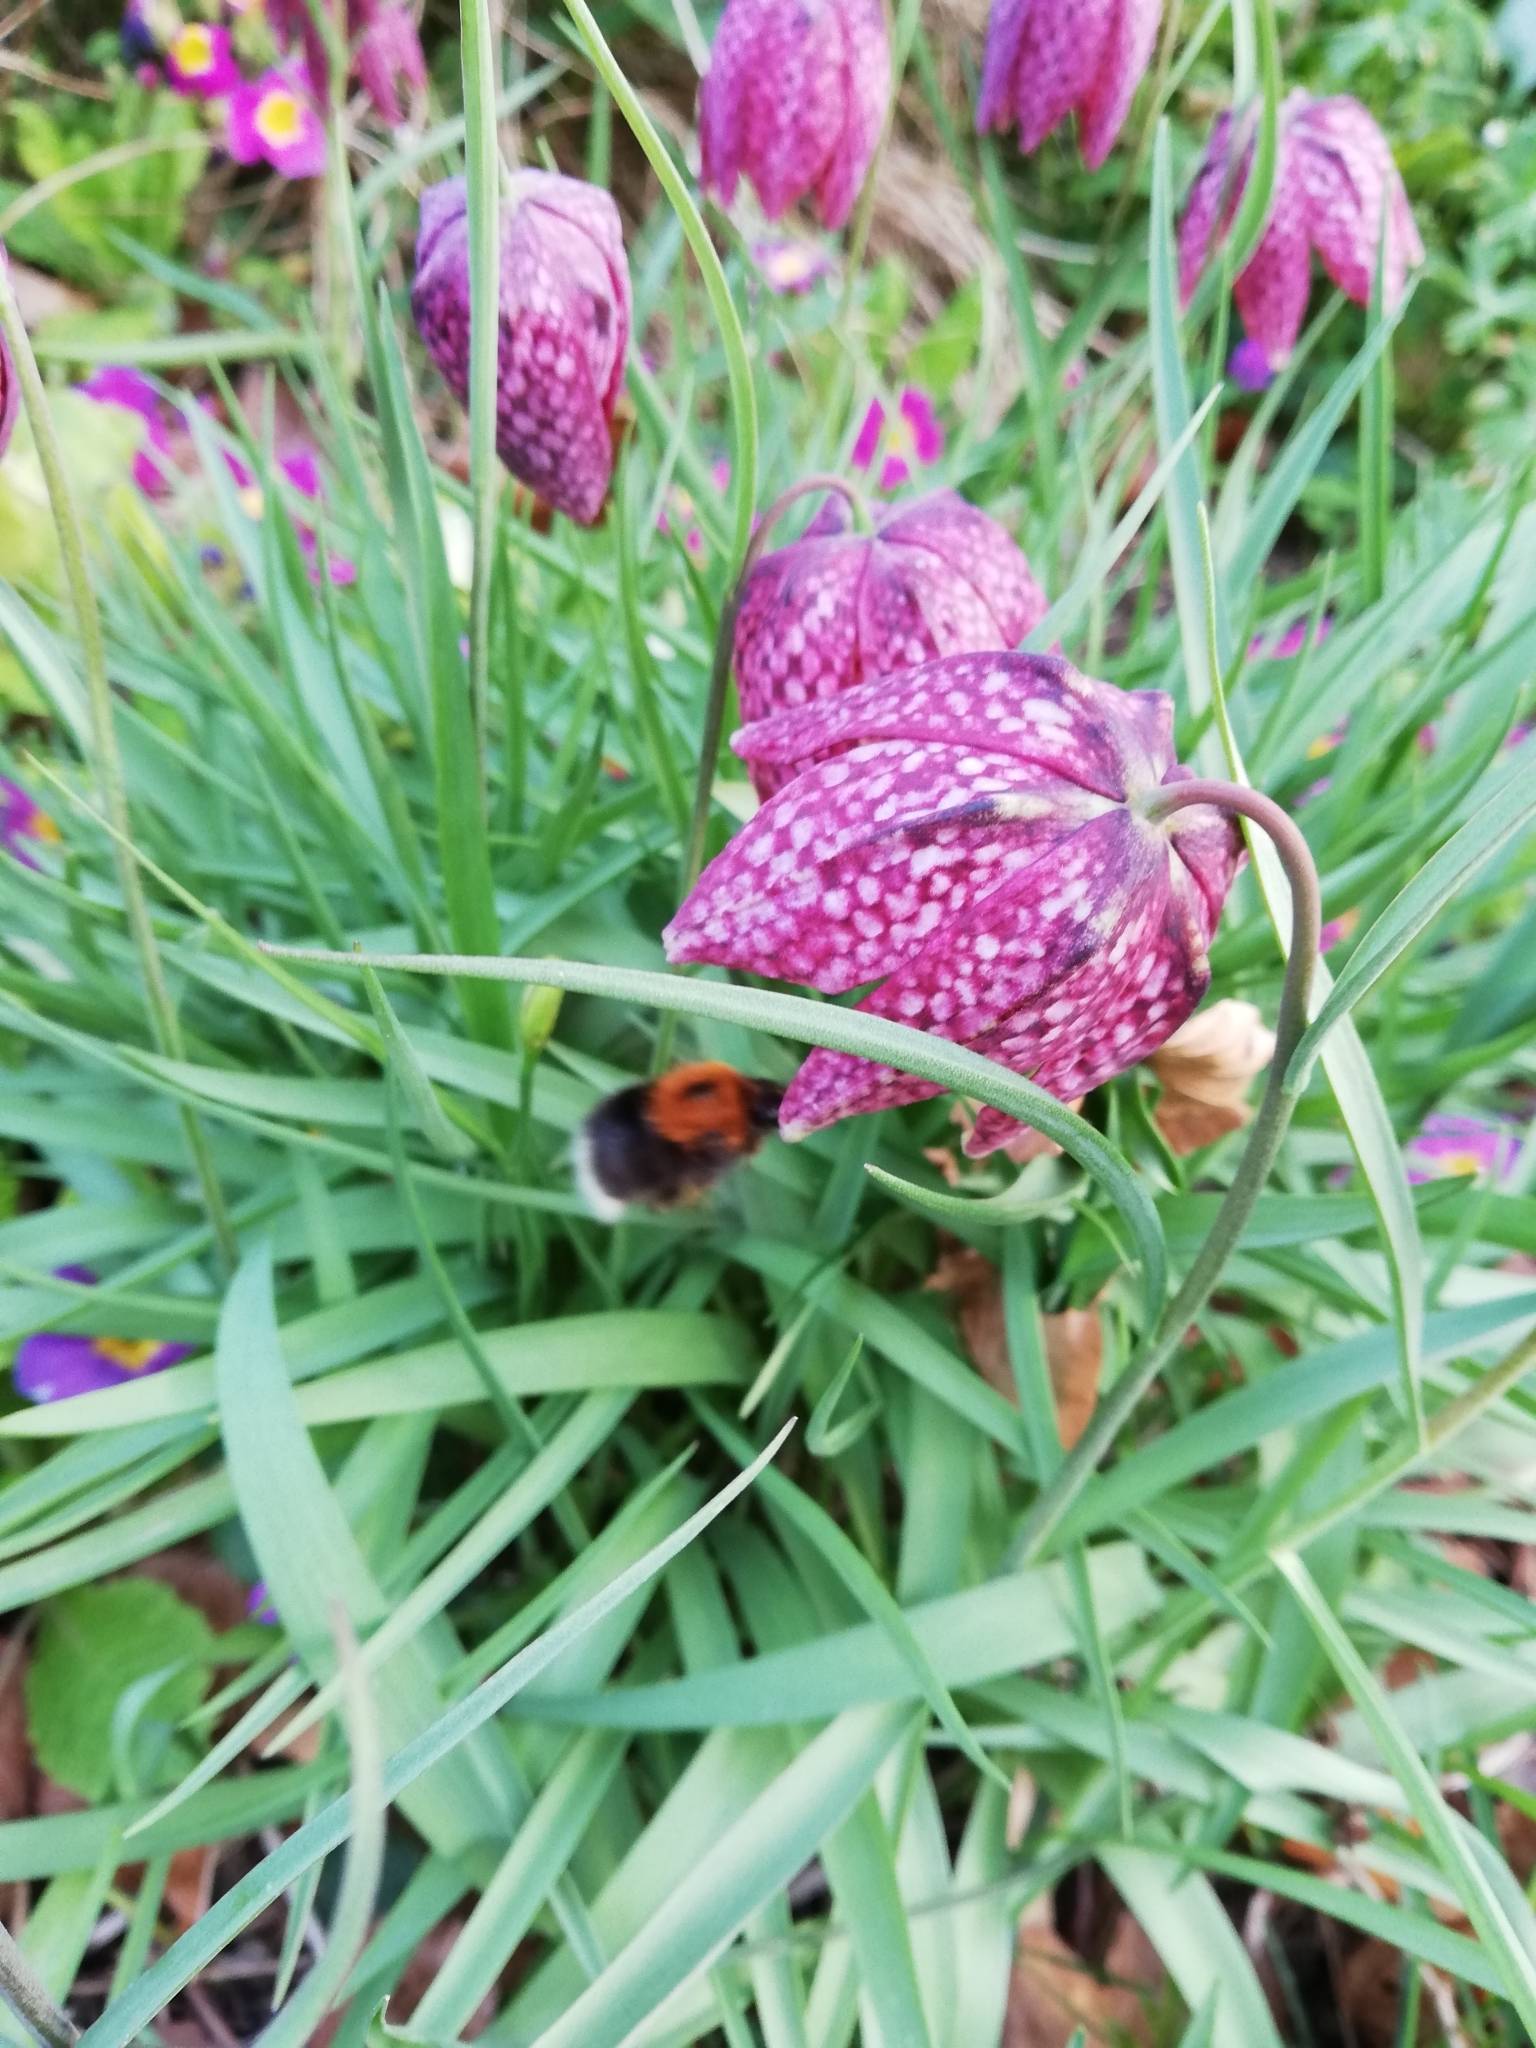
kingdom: Animalia
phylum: Arthropoda
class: Insecta
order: Hymenoptera
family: Apidae
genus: Bombus
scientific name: Bombus hypnorum
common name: New garden bumblebee
